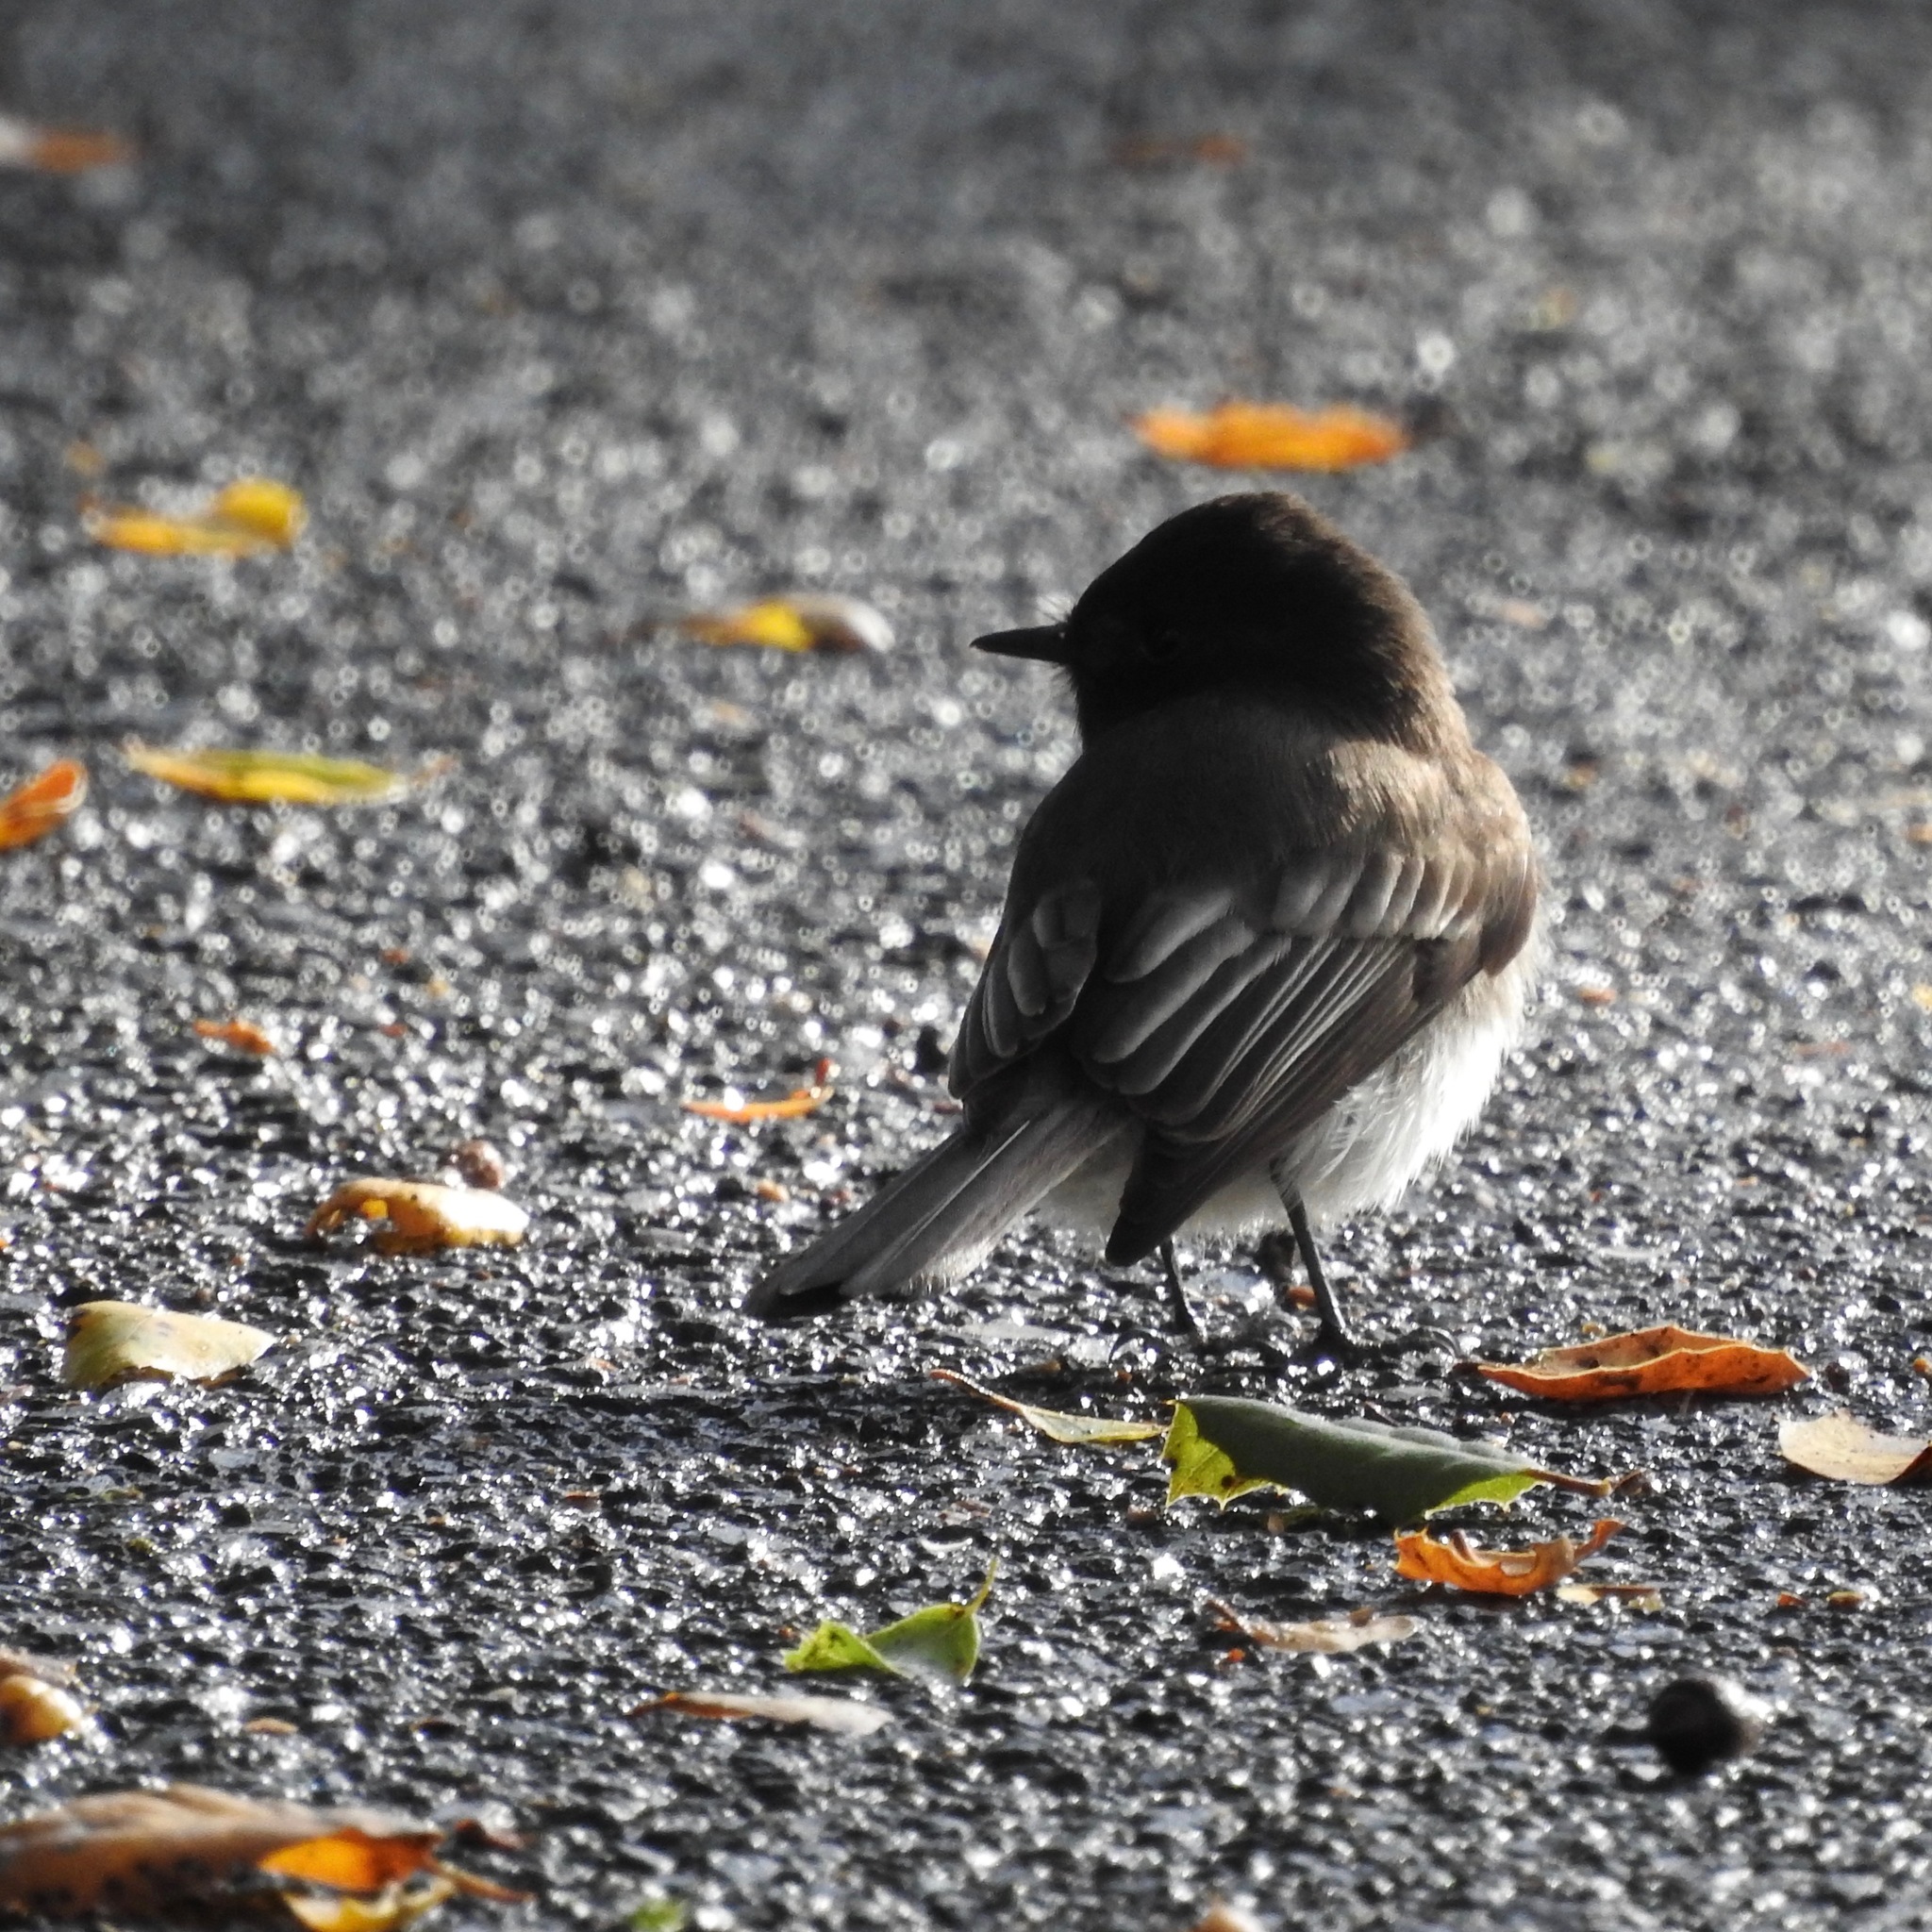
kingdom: Animalia
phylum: Chordata
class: Aves
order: Passeriformes
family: Tyrannidae
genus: Sayornis
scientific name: Sayornis nigricans
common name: Black phoebe
